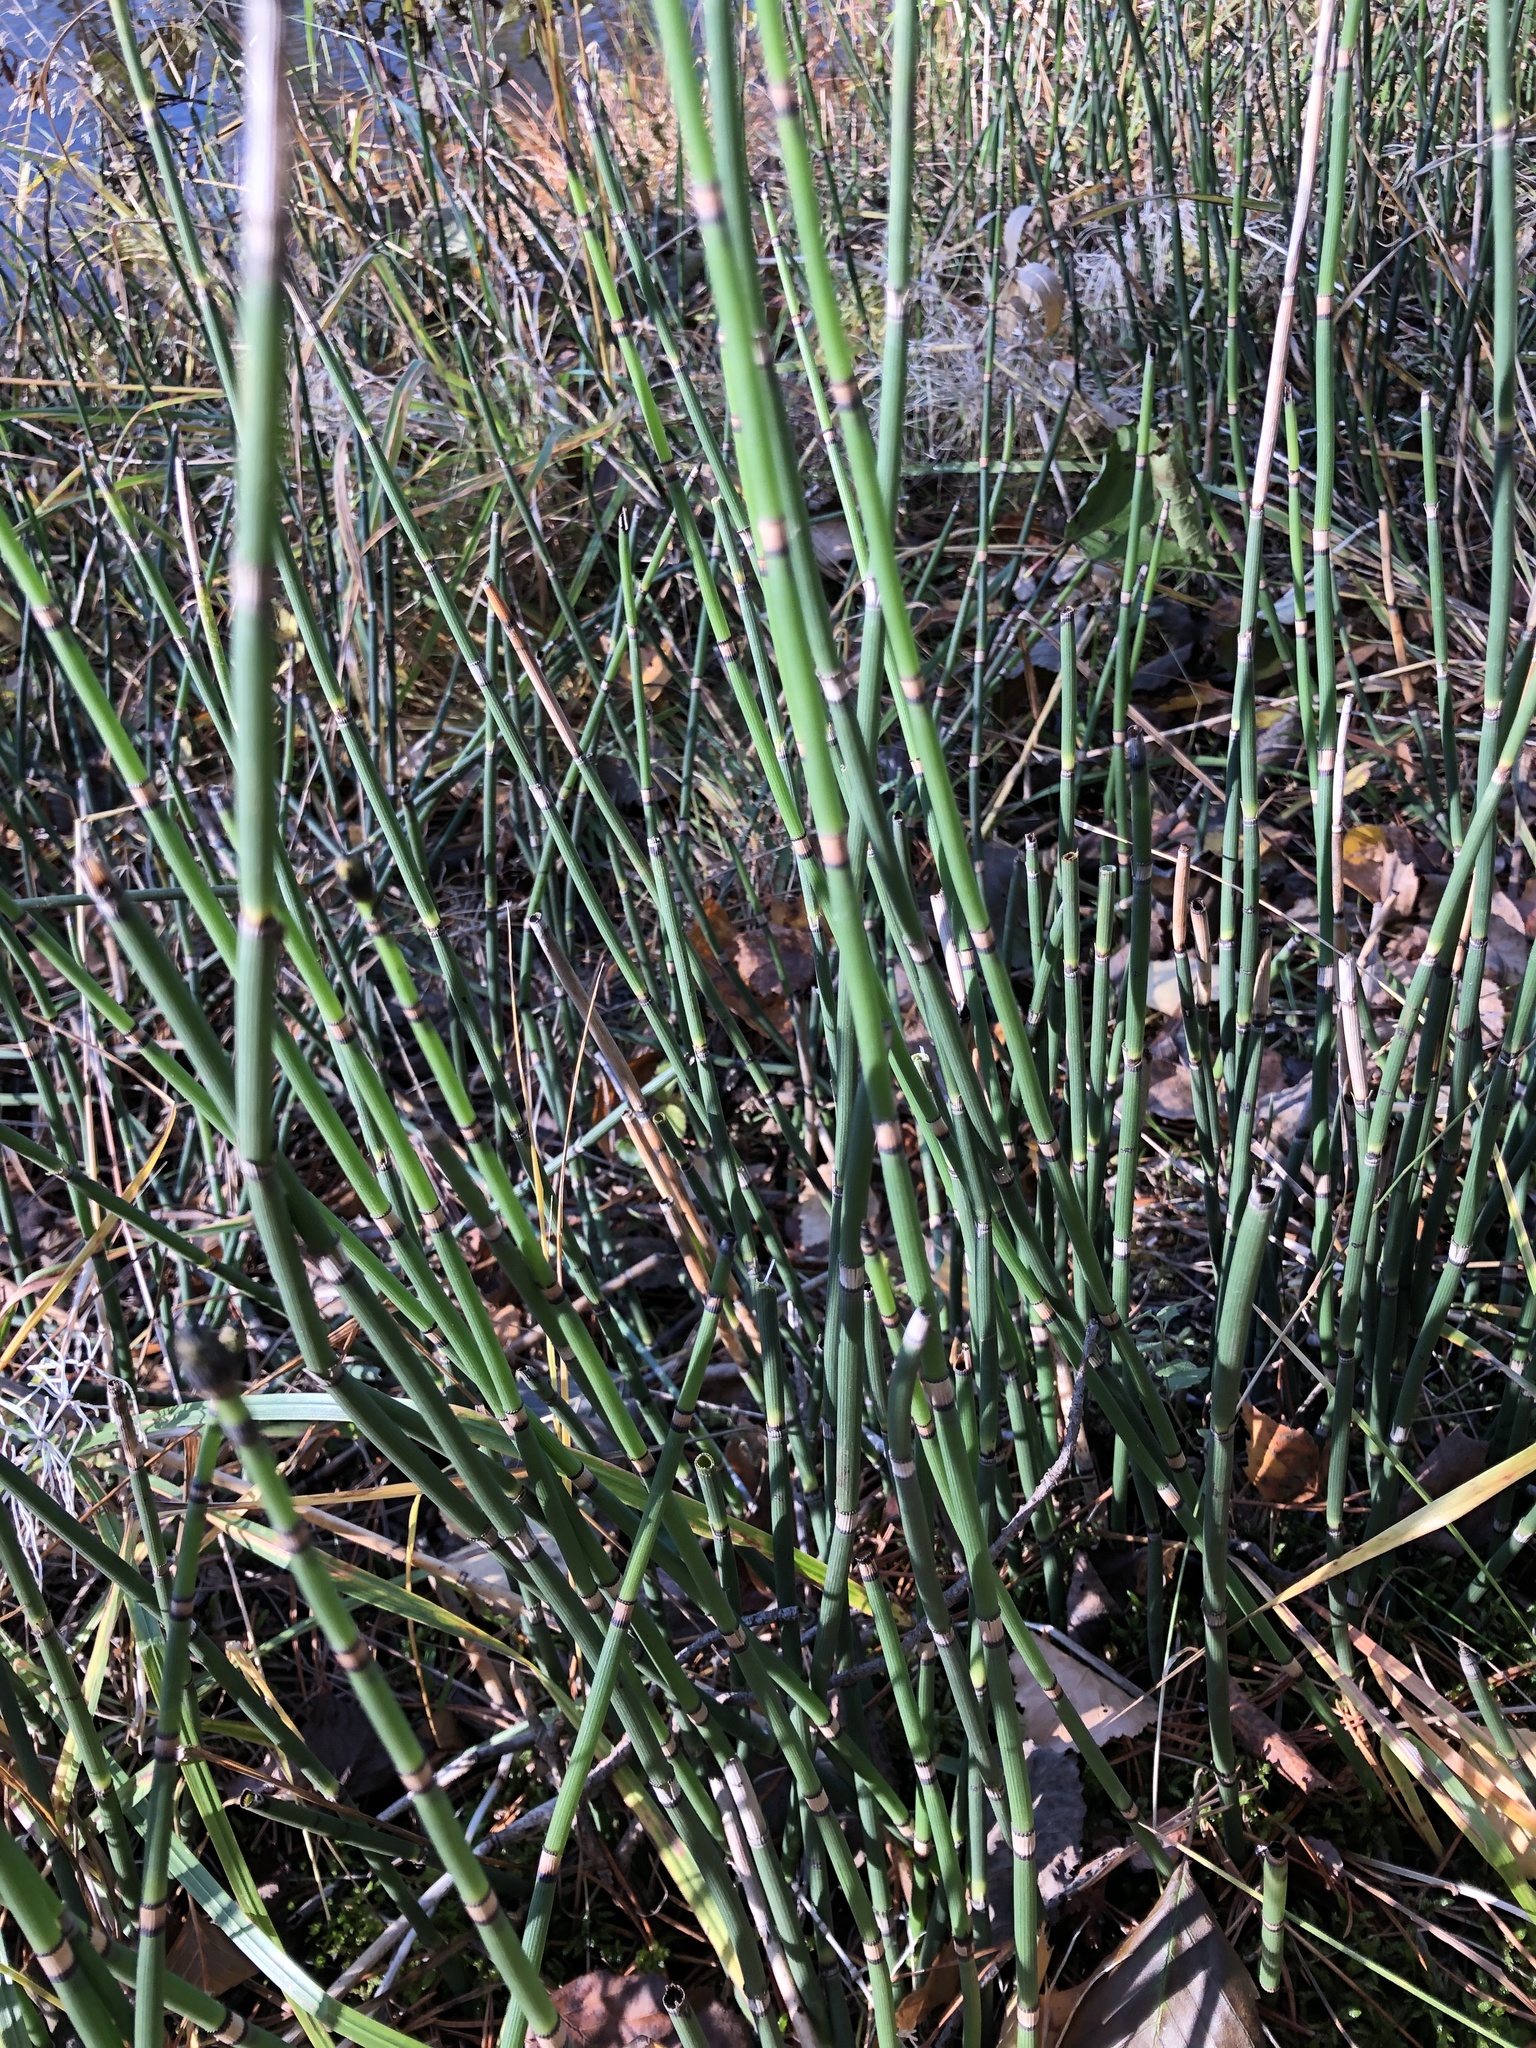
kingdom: Plantae
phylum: Tracheophyta
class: Polypodiopsida
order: Equisetales
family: Equisetaceae
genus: Equisetum
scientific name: Equisetum hyemale
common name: Rough horsetail
